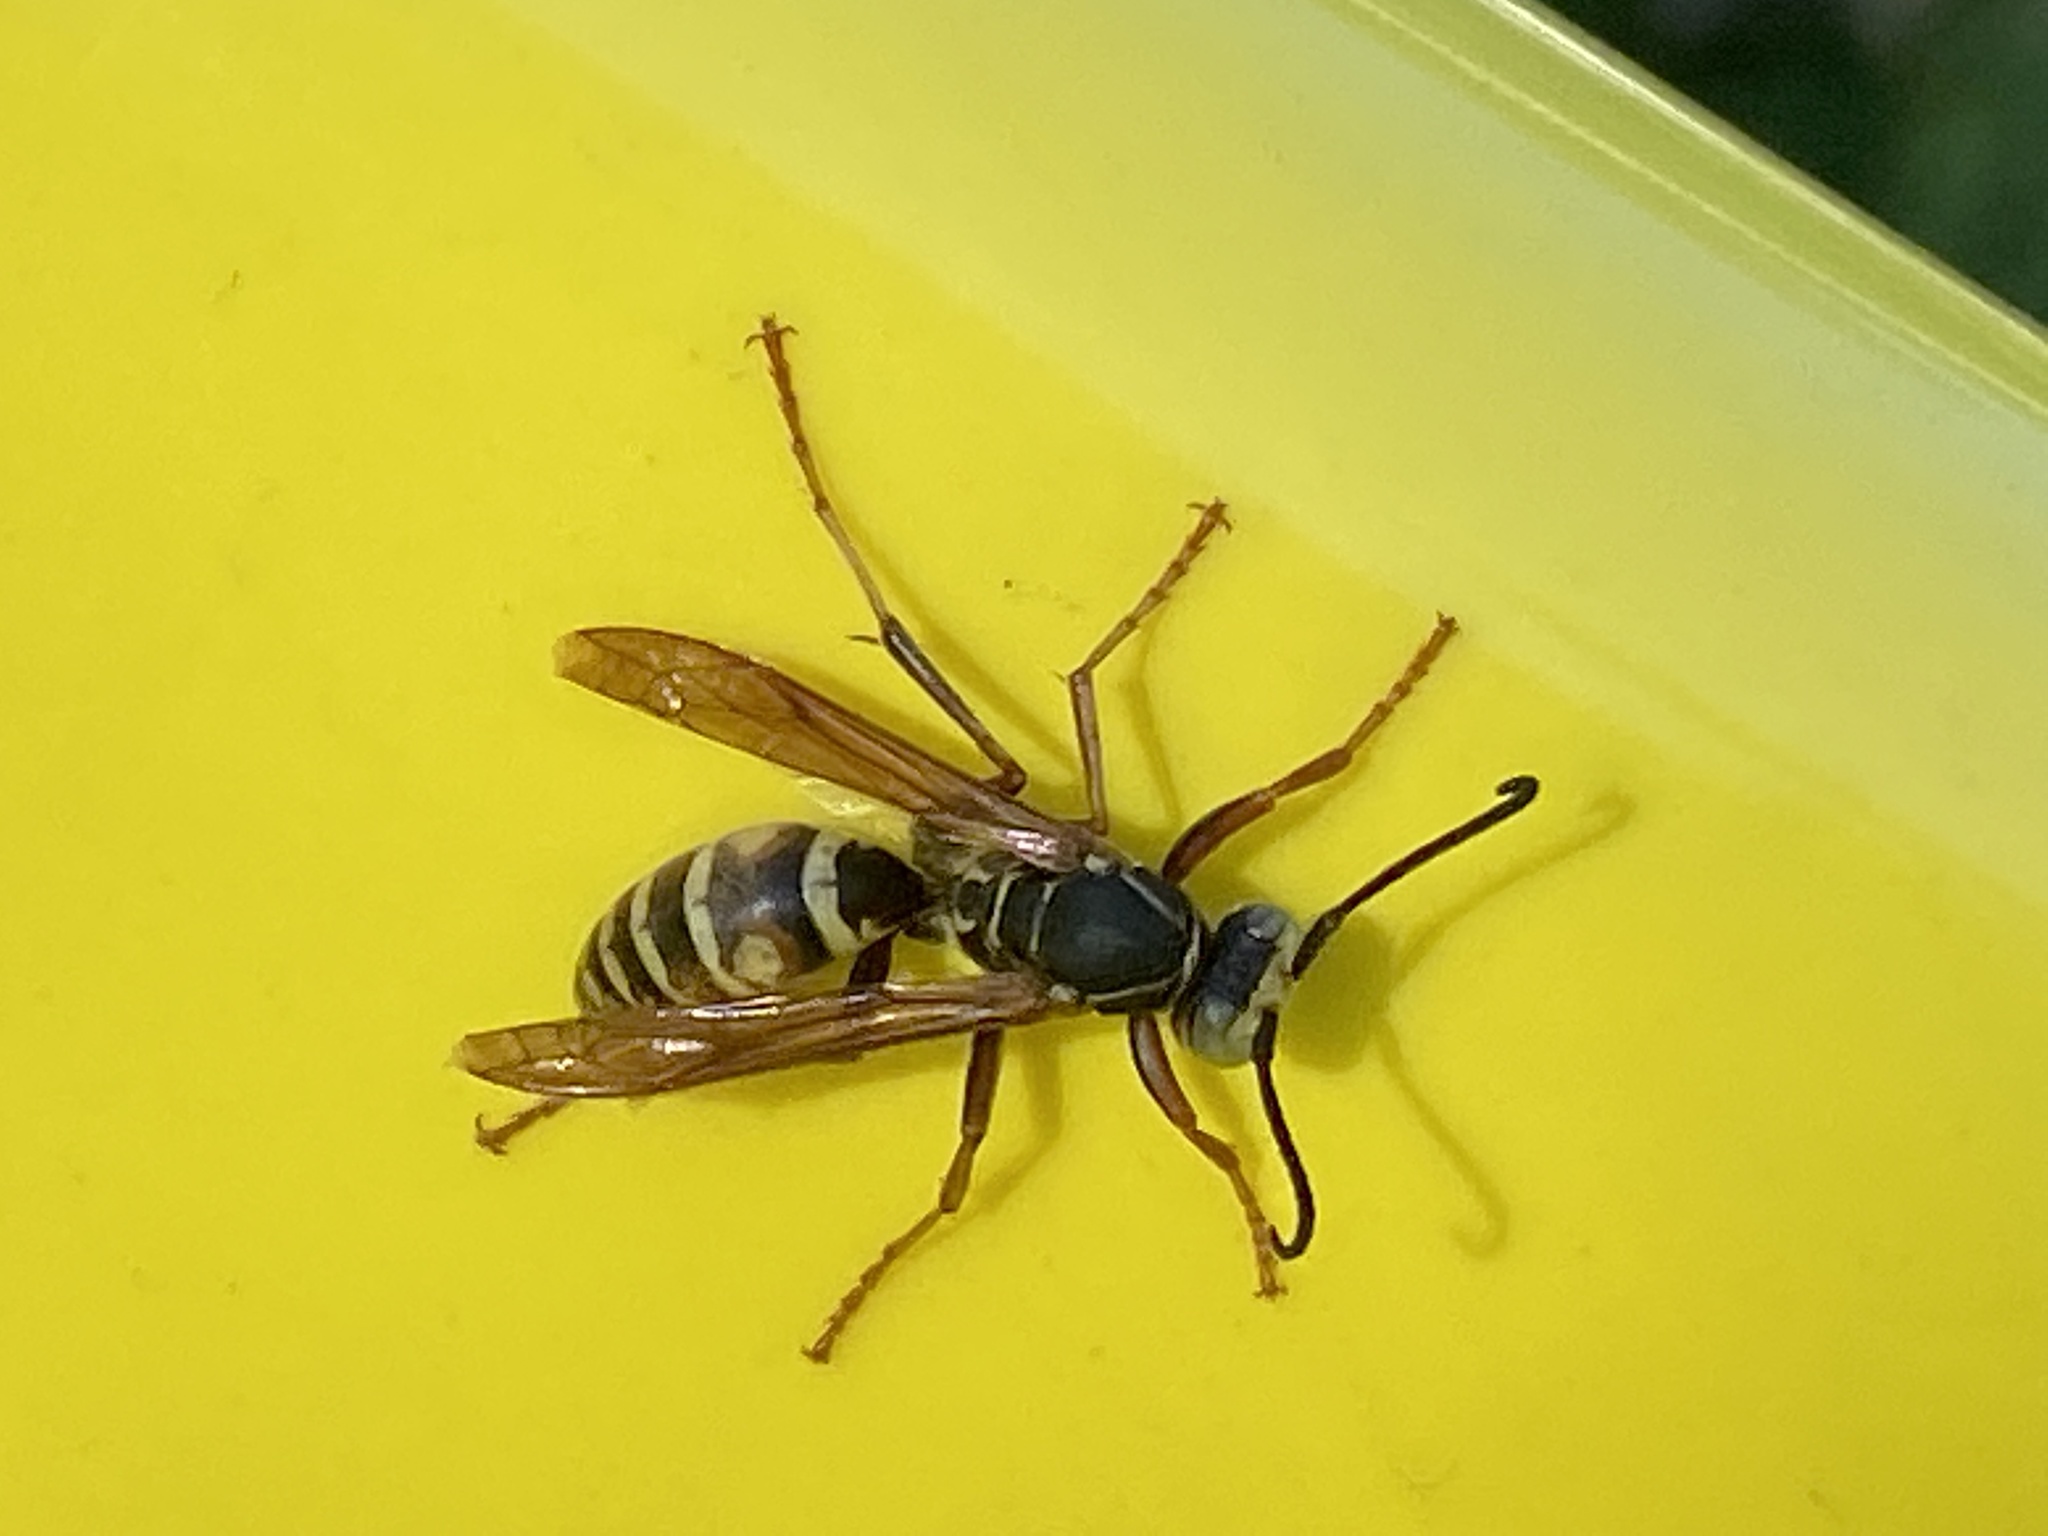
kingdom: Animalia
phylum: Arthropoda
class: Insecta
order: Hymenoptera
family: Eumenidae
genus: Polistes
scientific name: Polistes fuscatus
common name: Dark paper wasp
